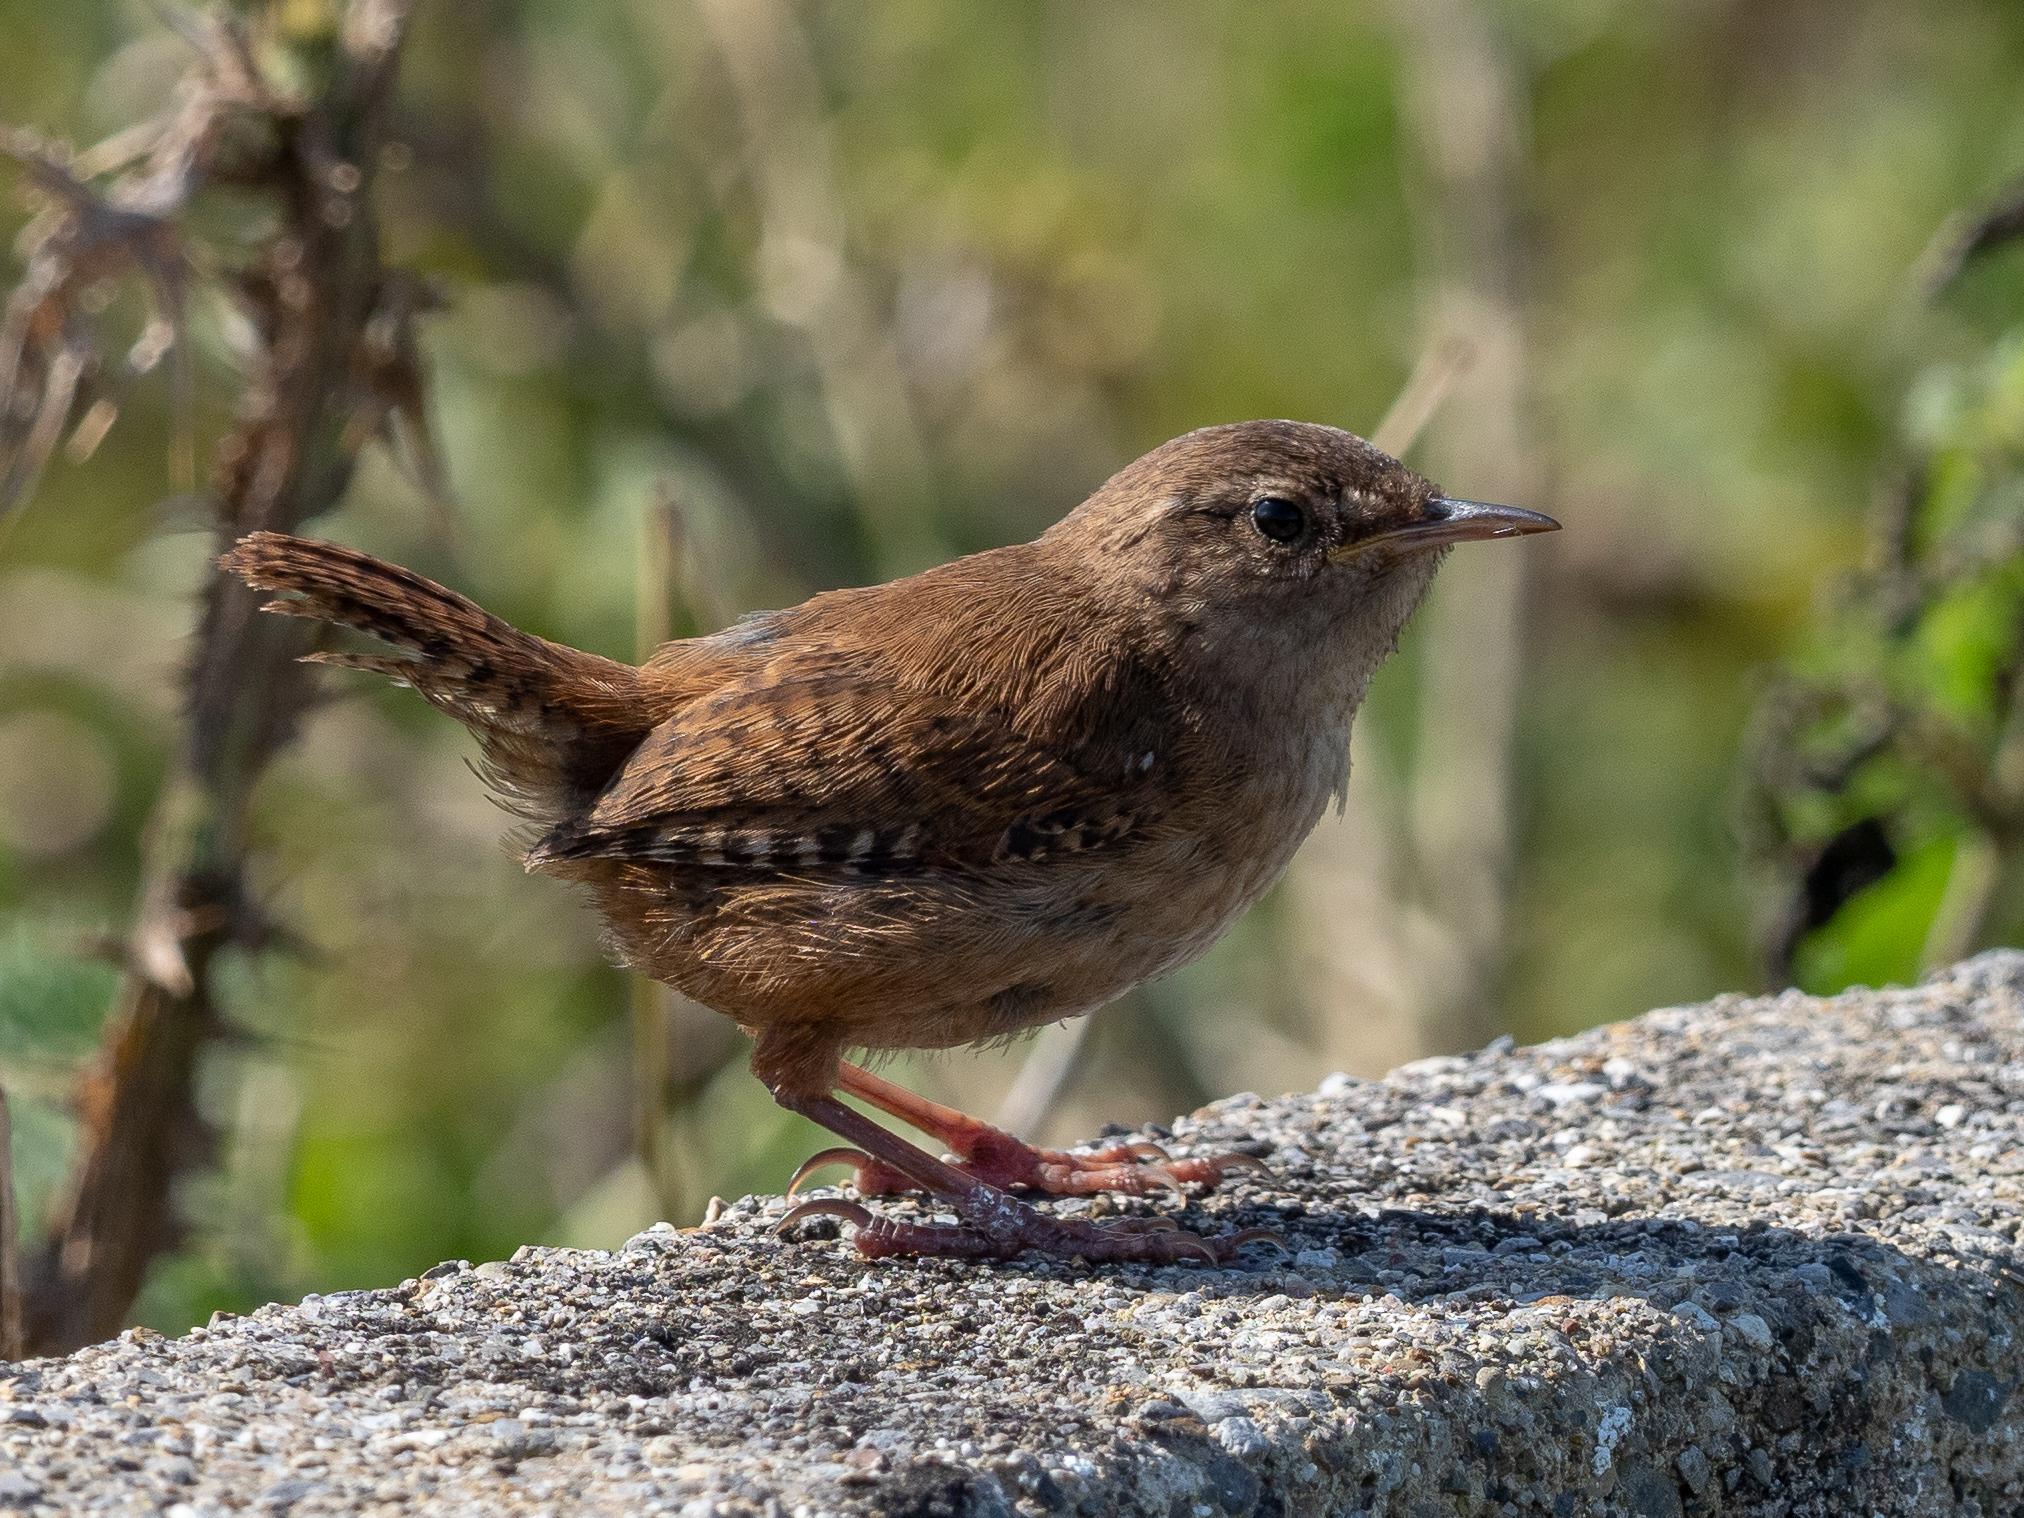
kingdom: Animalia
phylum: Chordata
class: Aves
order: Passeriformes
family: Troglodytidae
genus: Troglodytes
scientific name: Troglodytes troglodytes
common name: Eurasian wren
